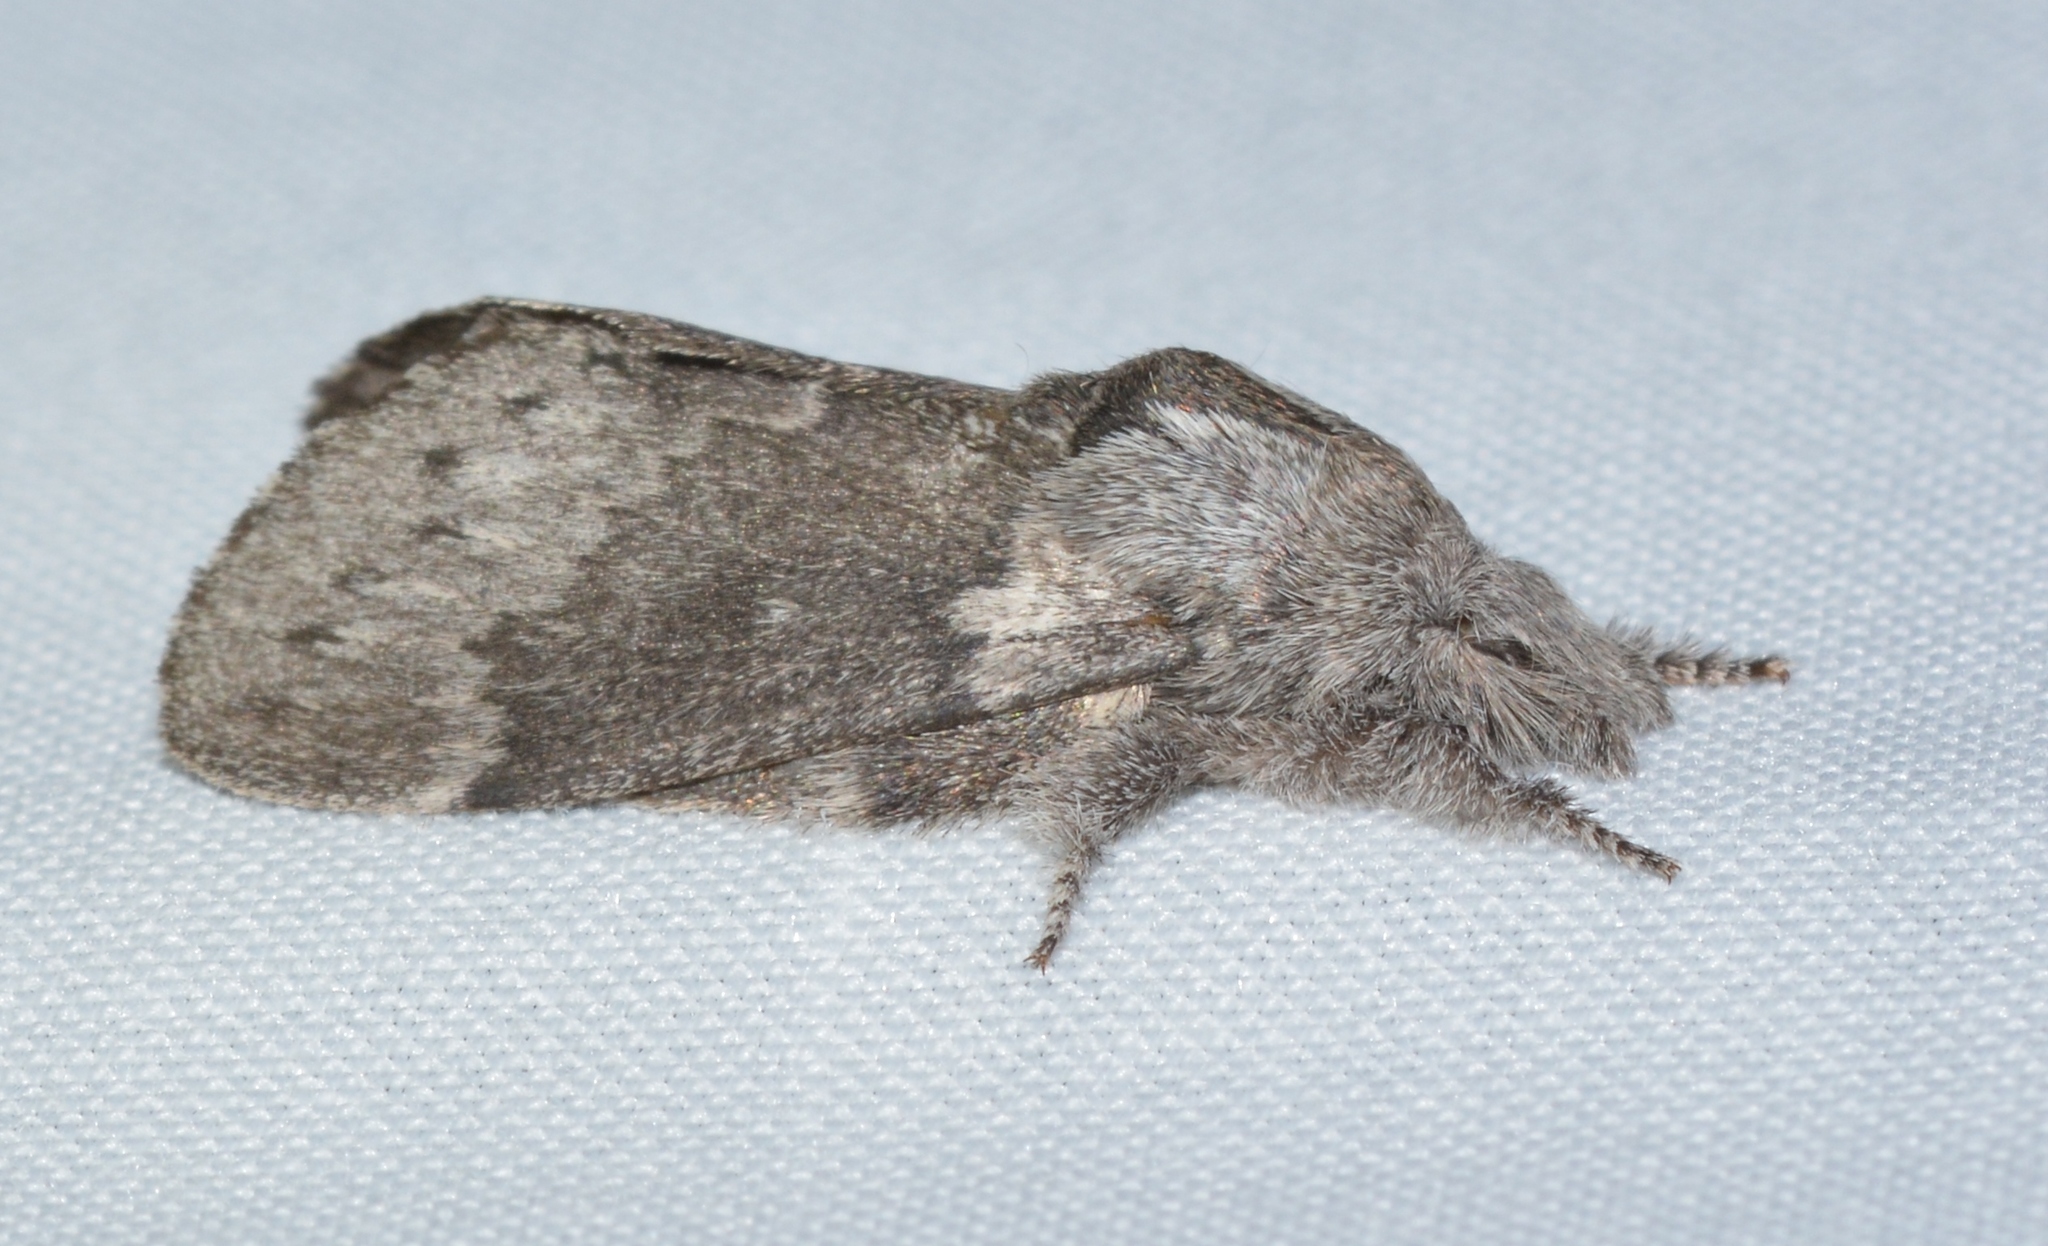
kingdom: Animalia
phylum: Arthropoda
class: Insecta
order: Lepidoptera
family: Lasiocampidae
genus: Heteropacha
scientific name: Heteropacha rileyana
